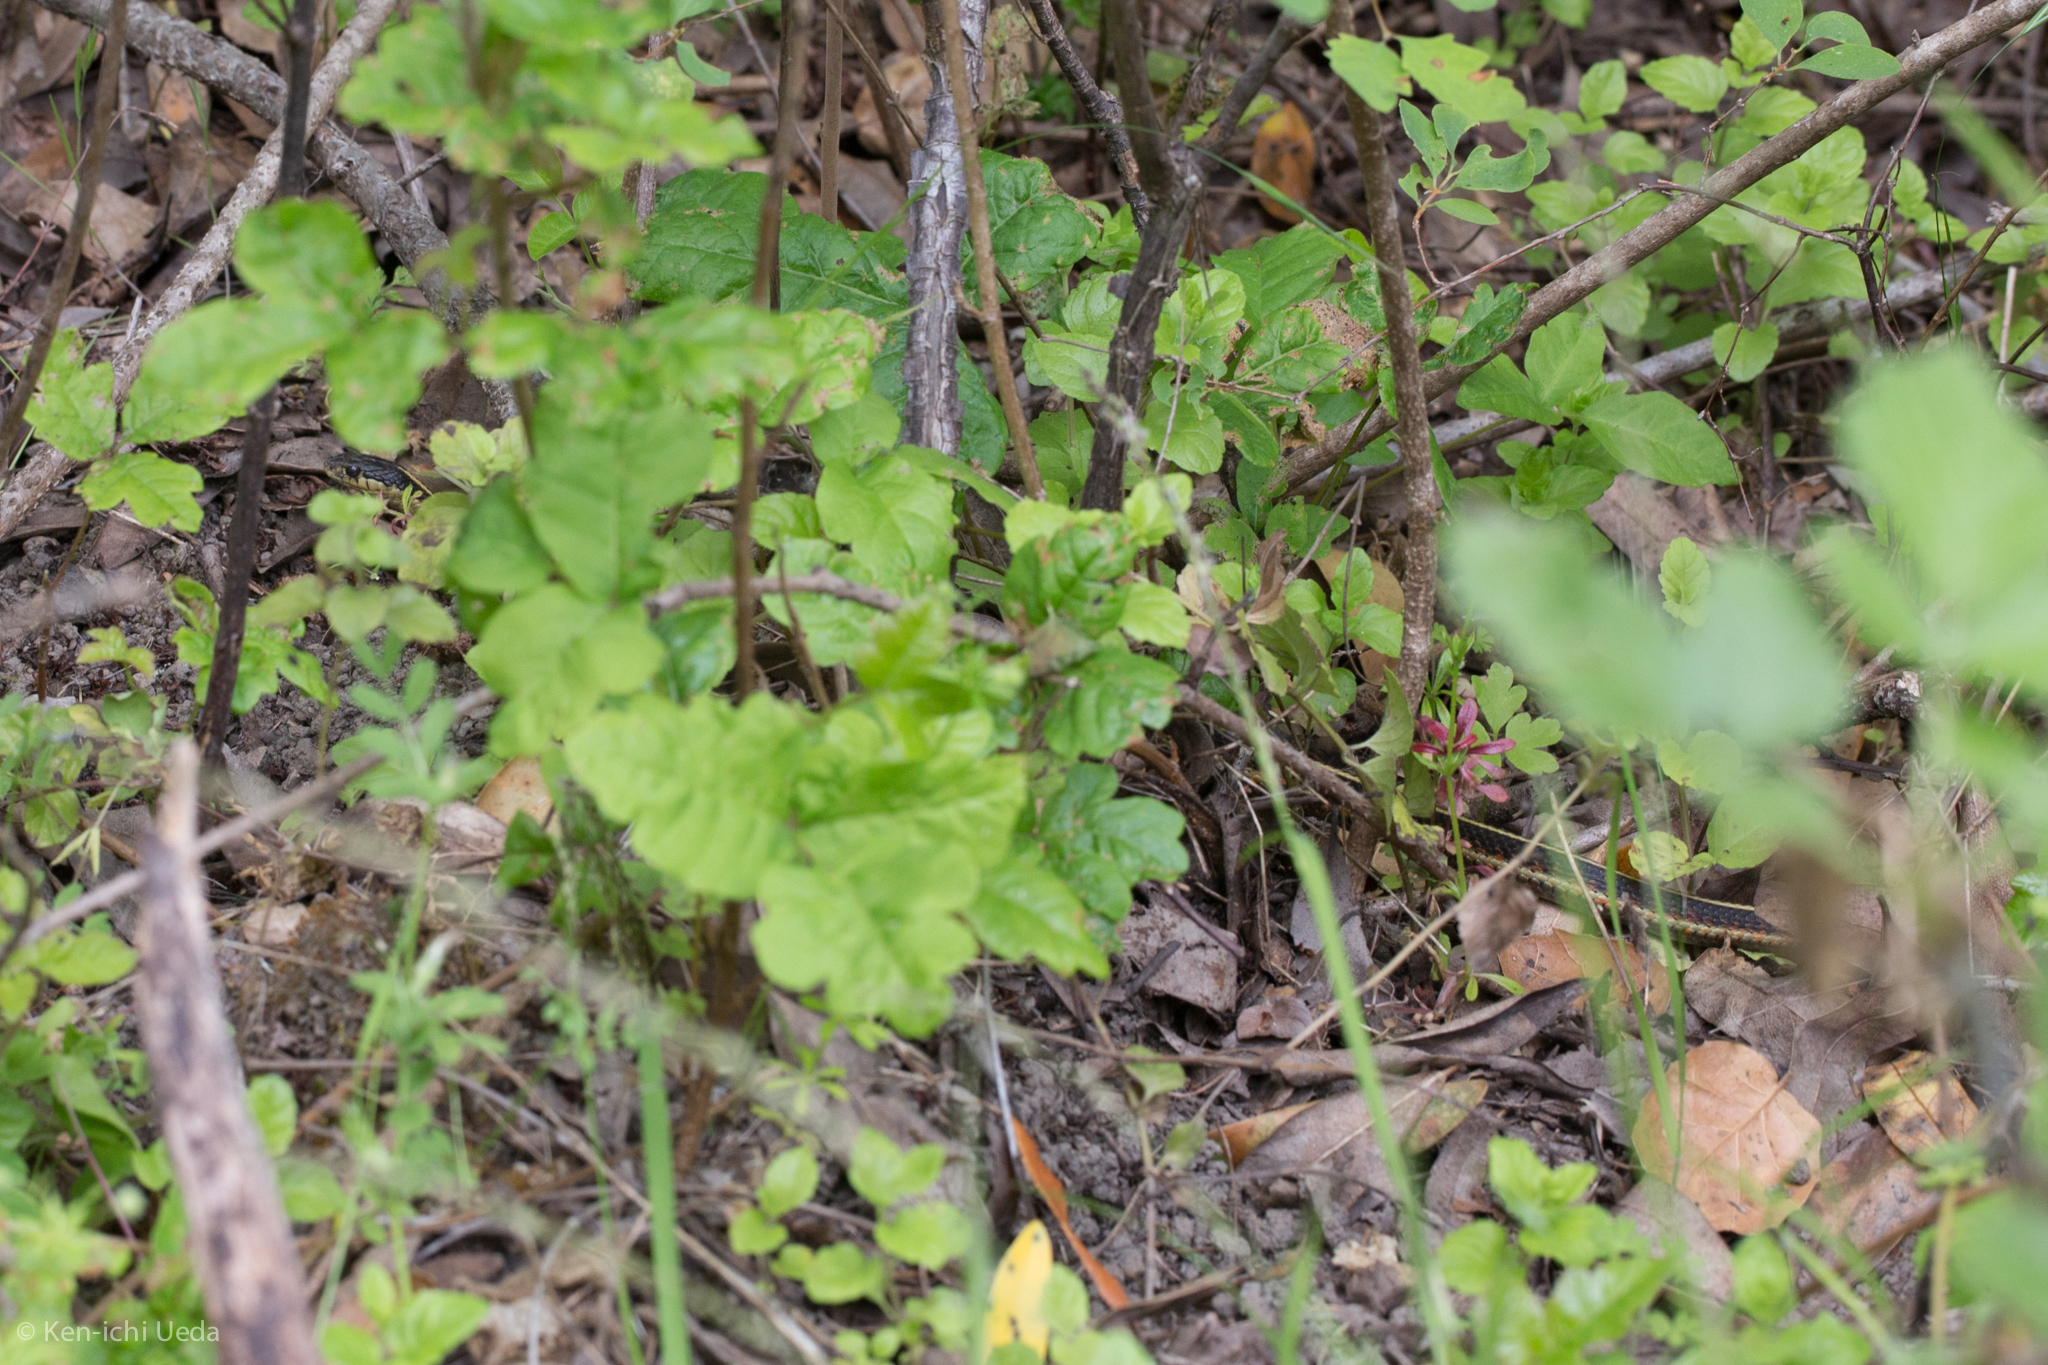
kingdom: Animalia
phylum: Chordata
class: Squamata
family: Colubridae
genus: Thamnophis
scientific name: Thamnophis elegans
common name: Western terrestrial garter snake
